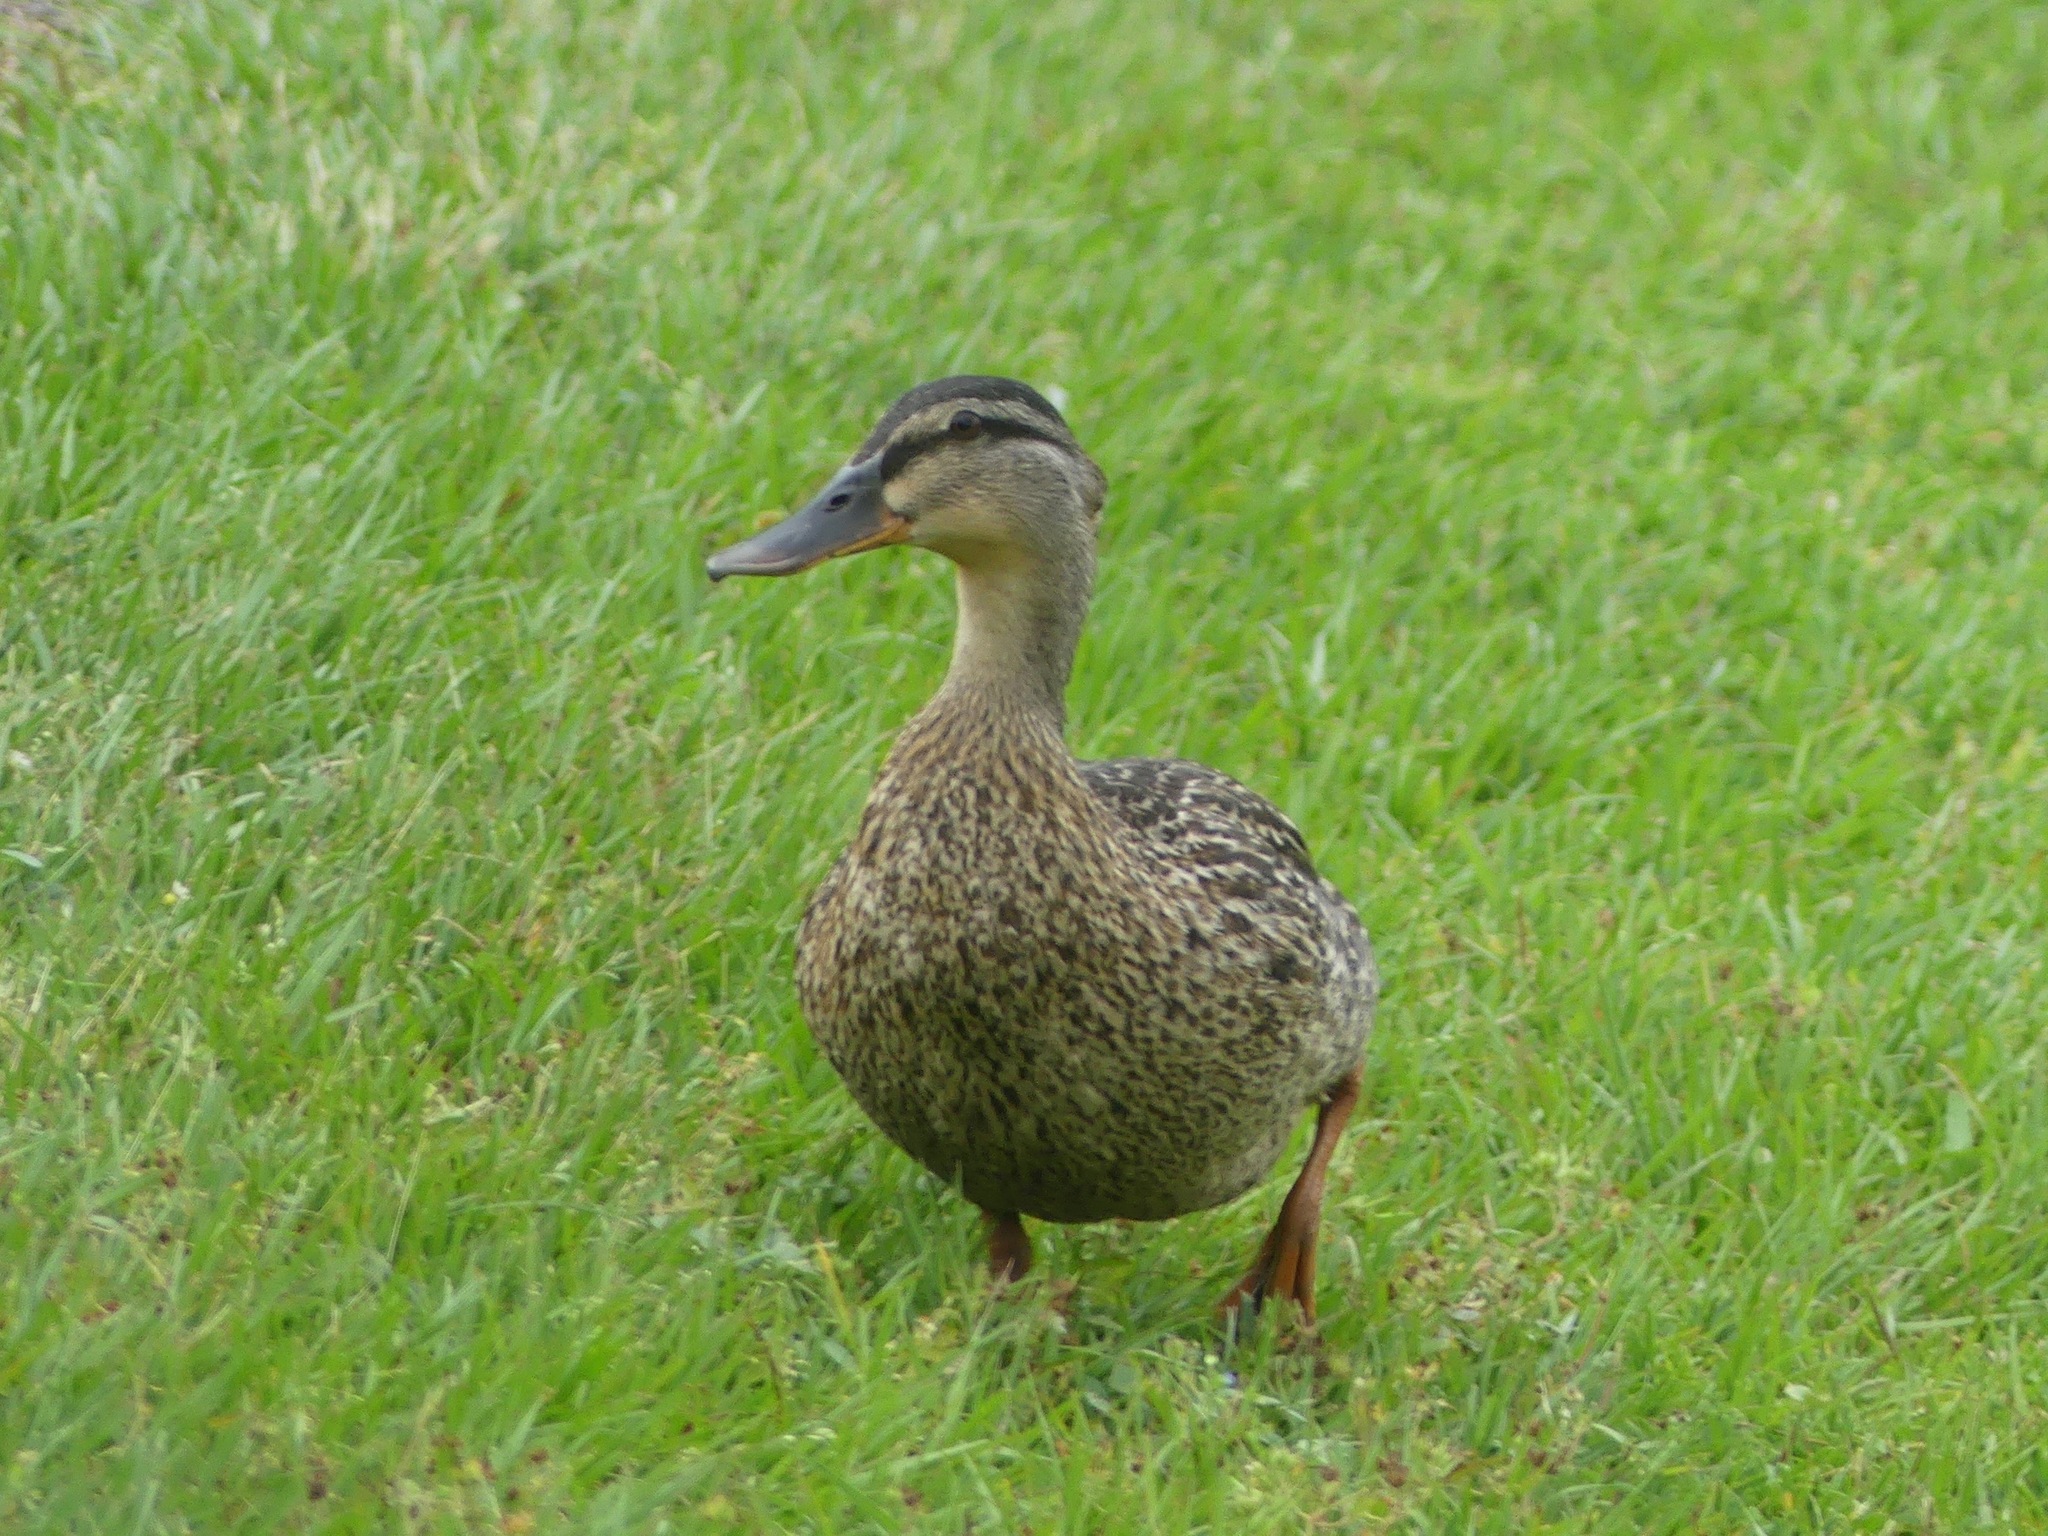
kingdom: Animalia
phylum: Chordata
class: Aves
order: Anseriformes
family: Anatidae
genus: Anas
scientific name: Anas platyrhynchos
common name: Mallard
